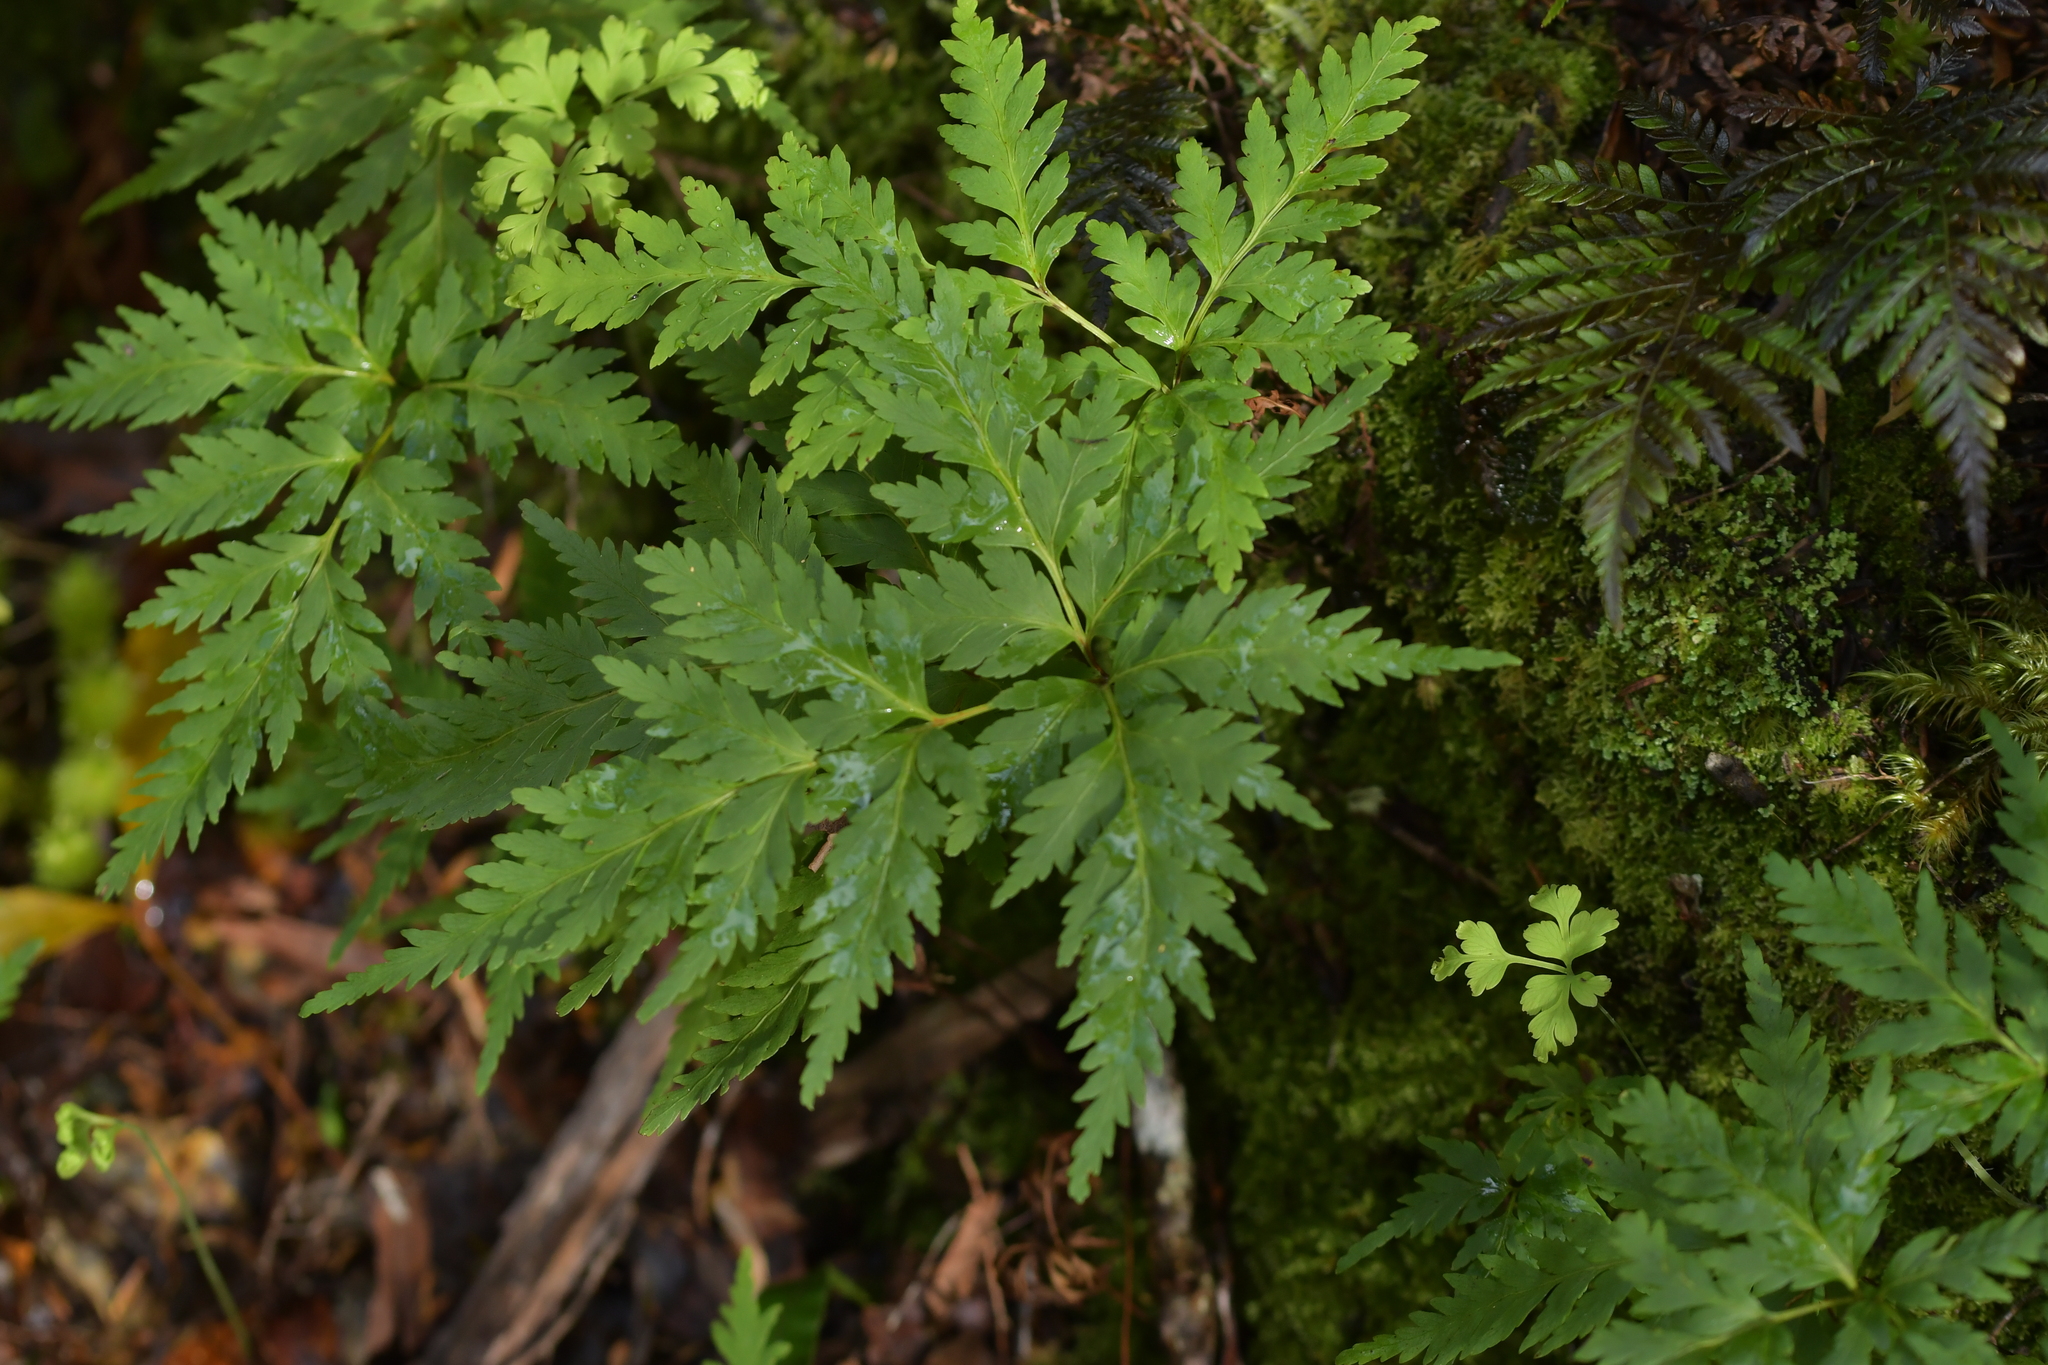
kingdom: Plantae
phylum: Tracheophyta
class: Polypodiopsida
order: Cyatheales
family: Loxsomataceae
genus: Loxsoma
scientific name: Loxsoma cunninghamii
